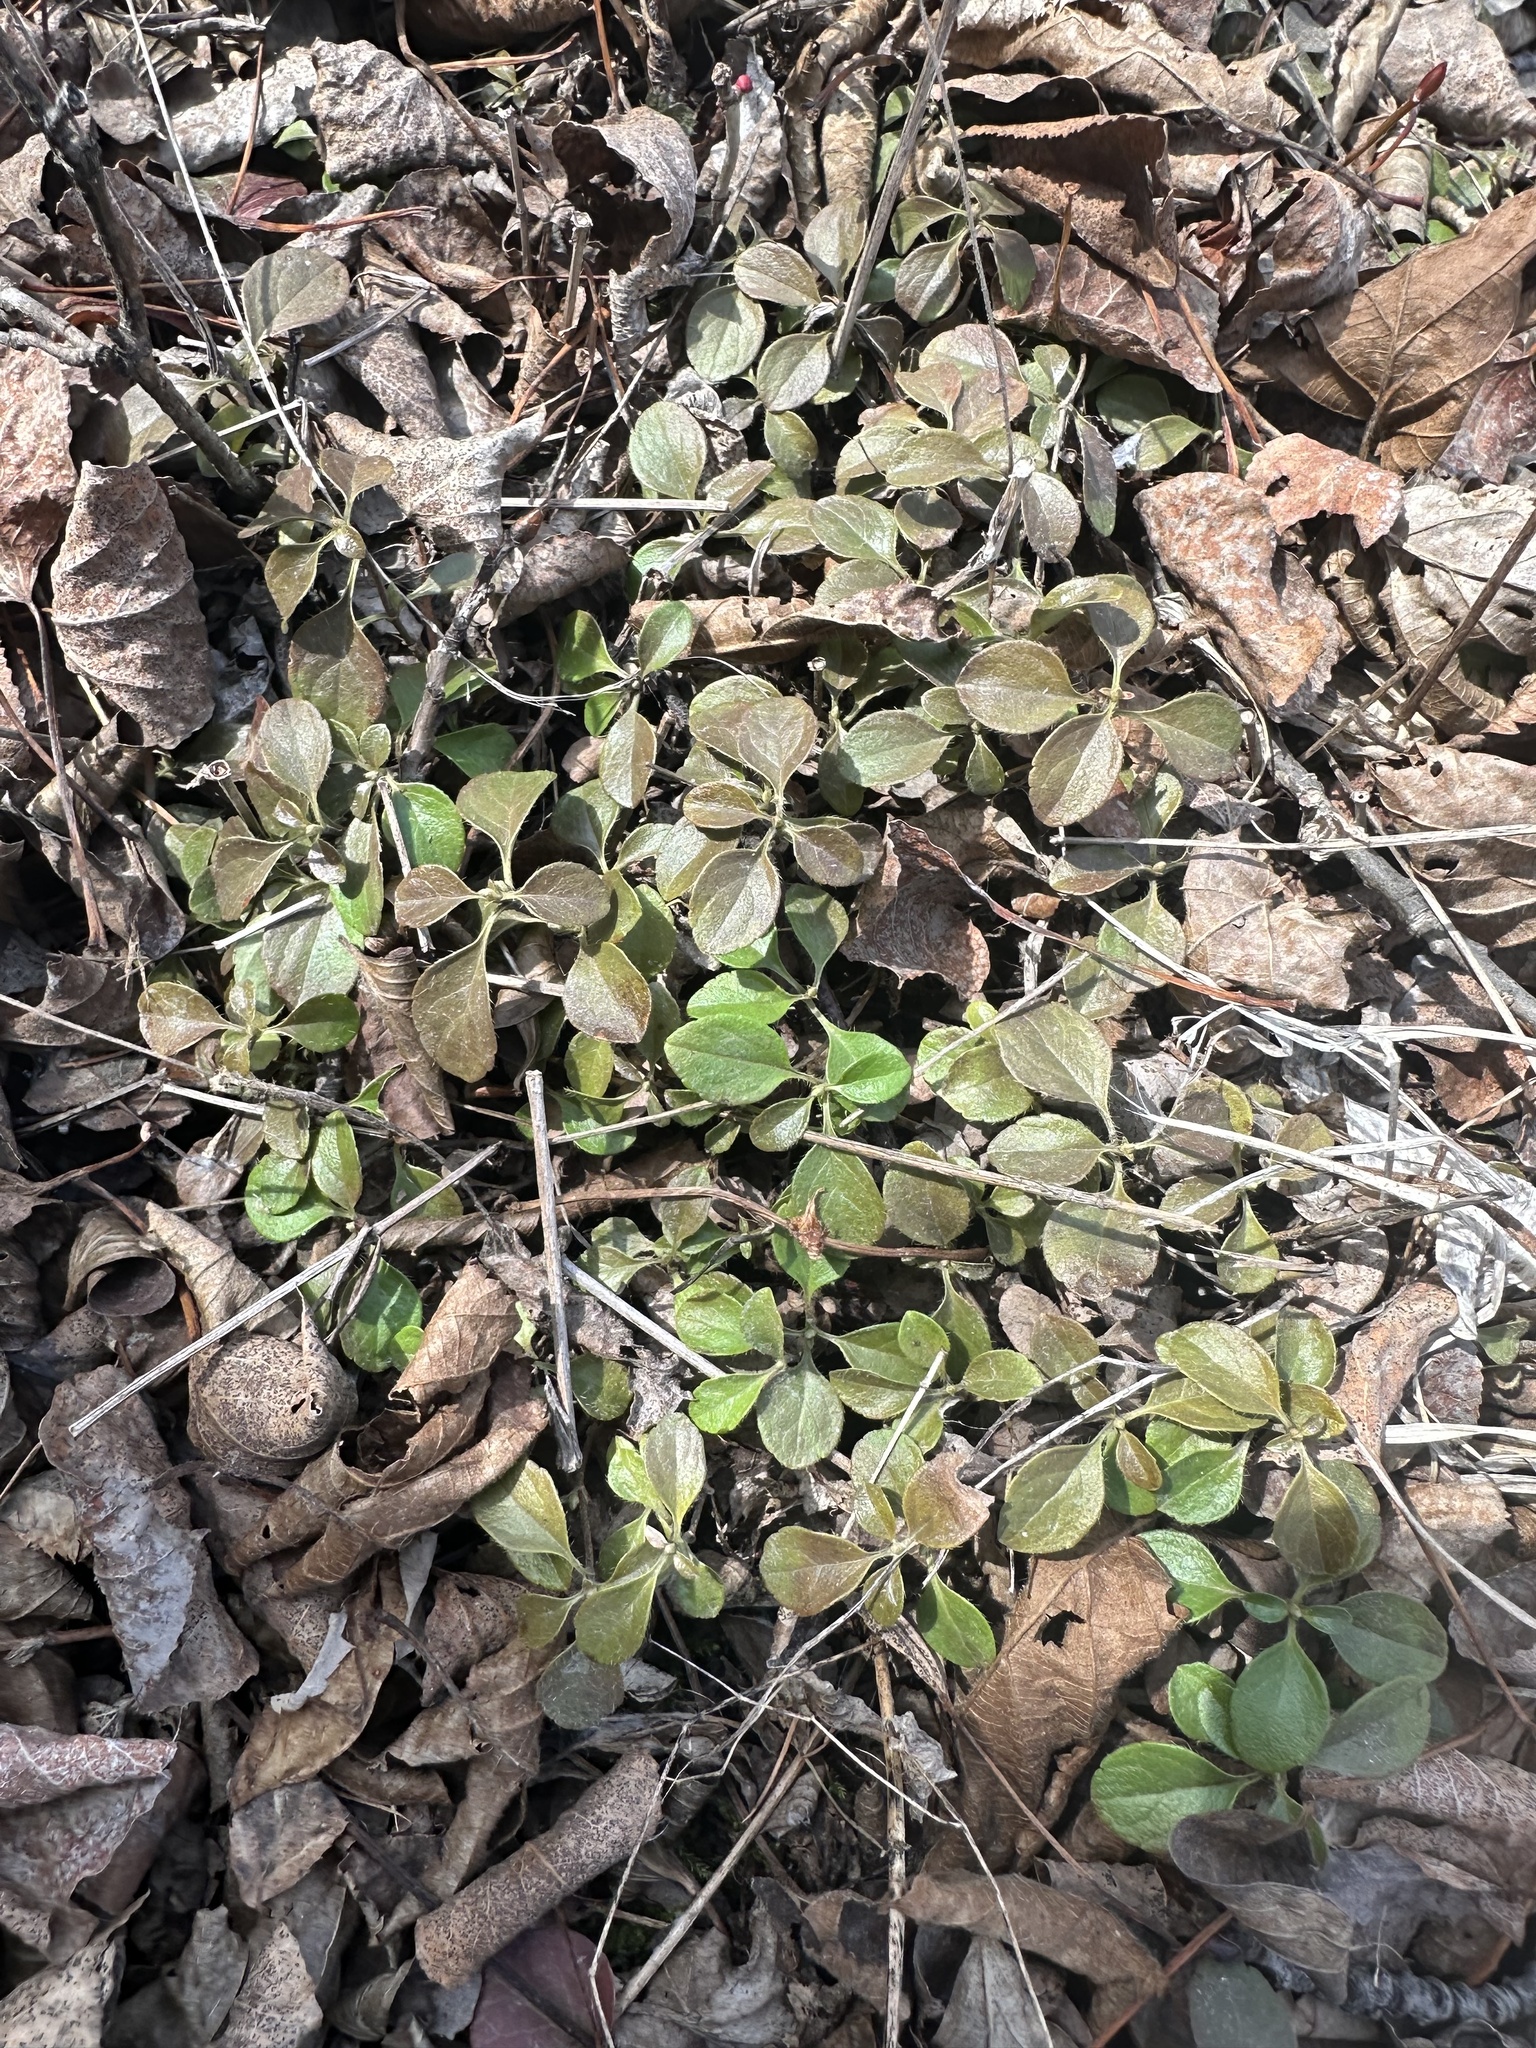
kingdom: Plantae
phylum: Tracheophyta
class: Magnoliopsida
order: Dipsacales
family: Caprifoliaceae
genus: Linnaea
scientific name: Linnaea borealis
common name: Twinflower
